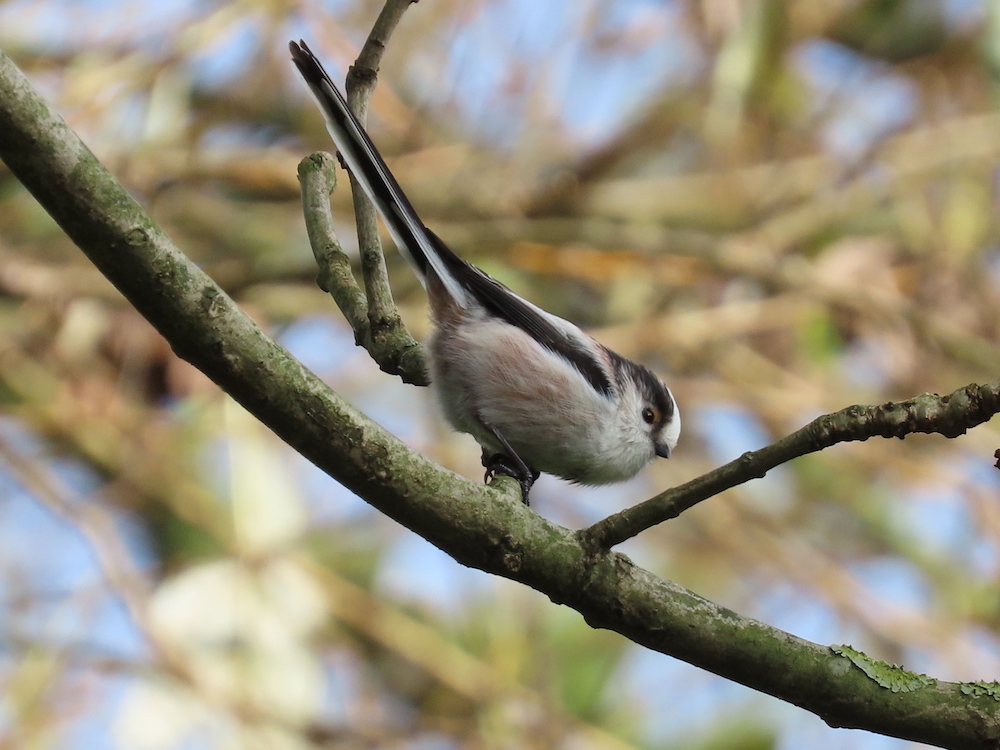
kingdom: Animalia
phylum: Chordata
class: Aves
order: Passeriformes
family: Aegithalidae
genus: Aegithalos
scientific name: Aegithalos caudatus
